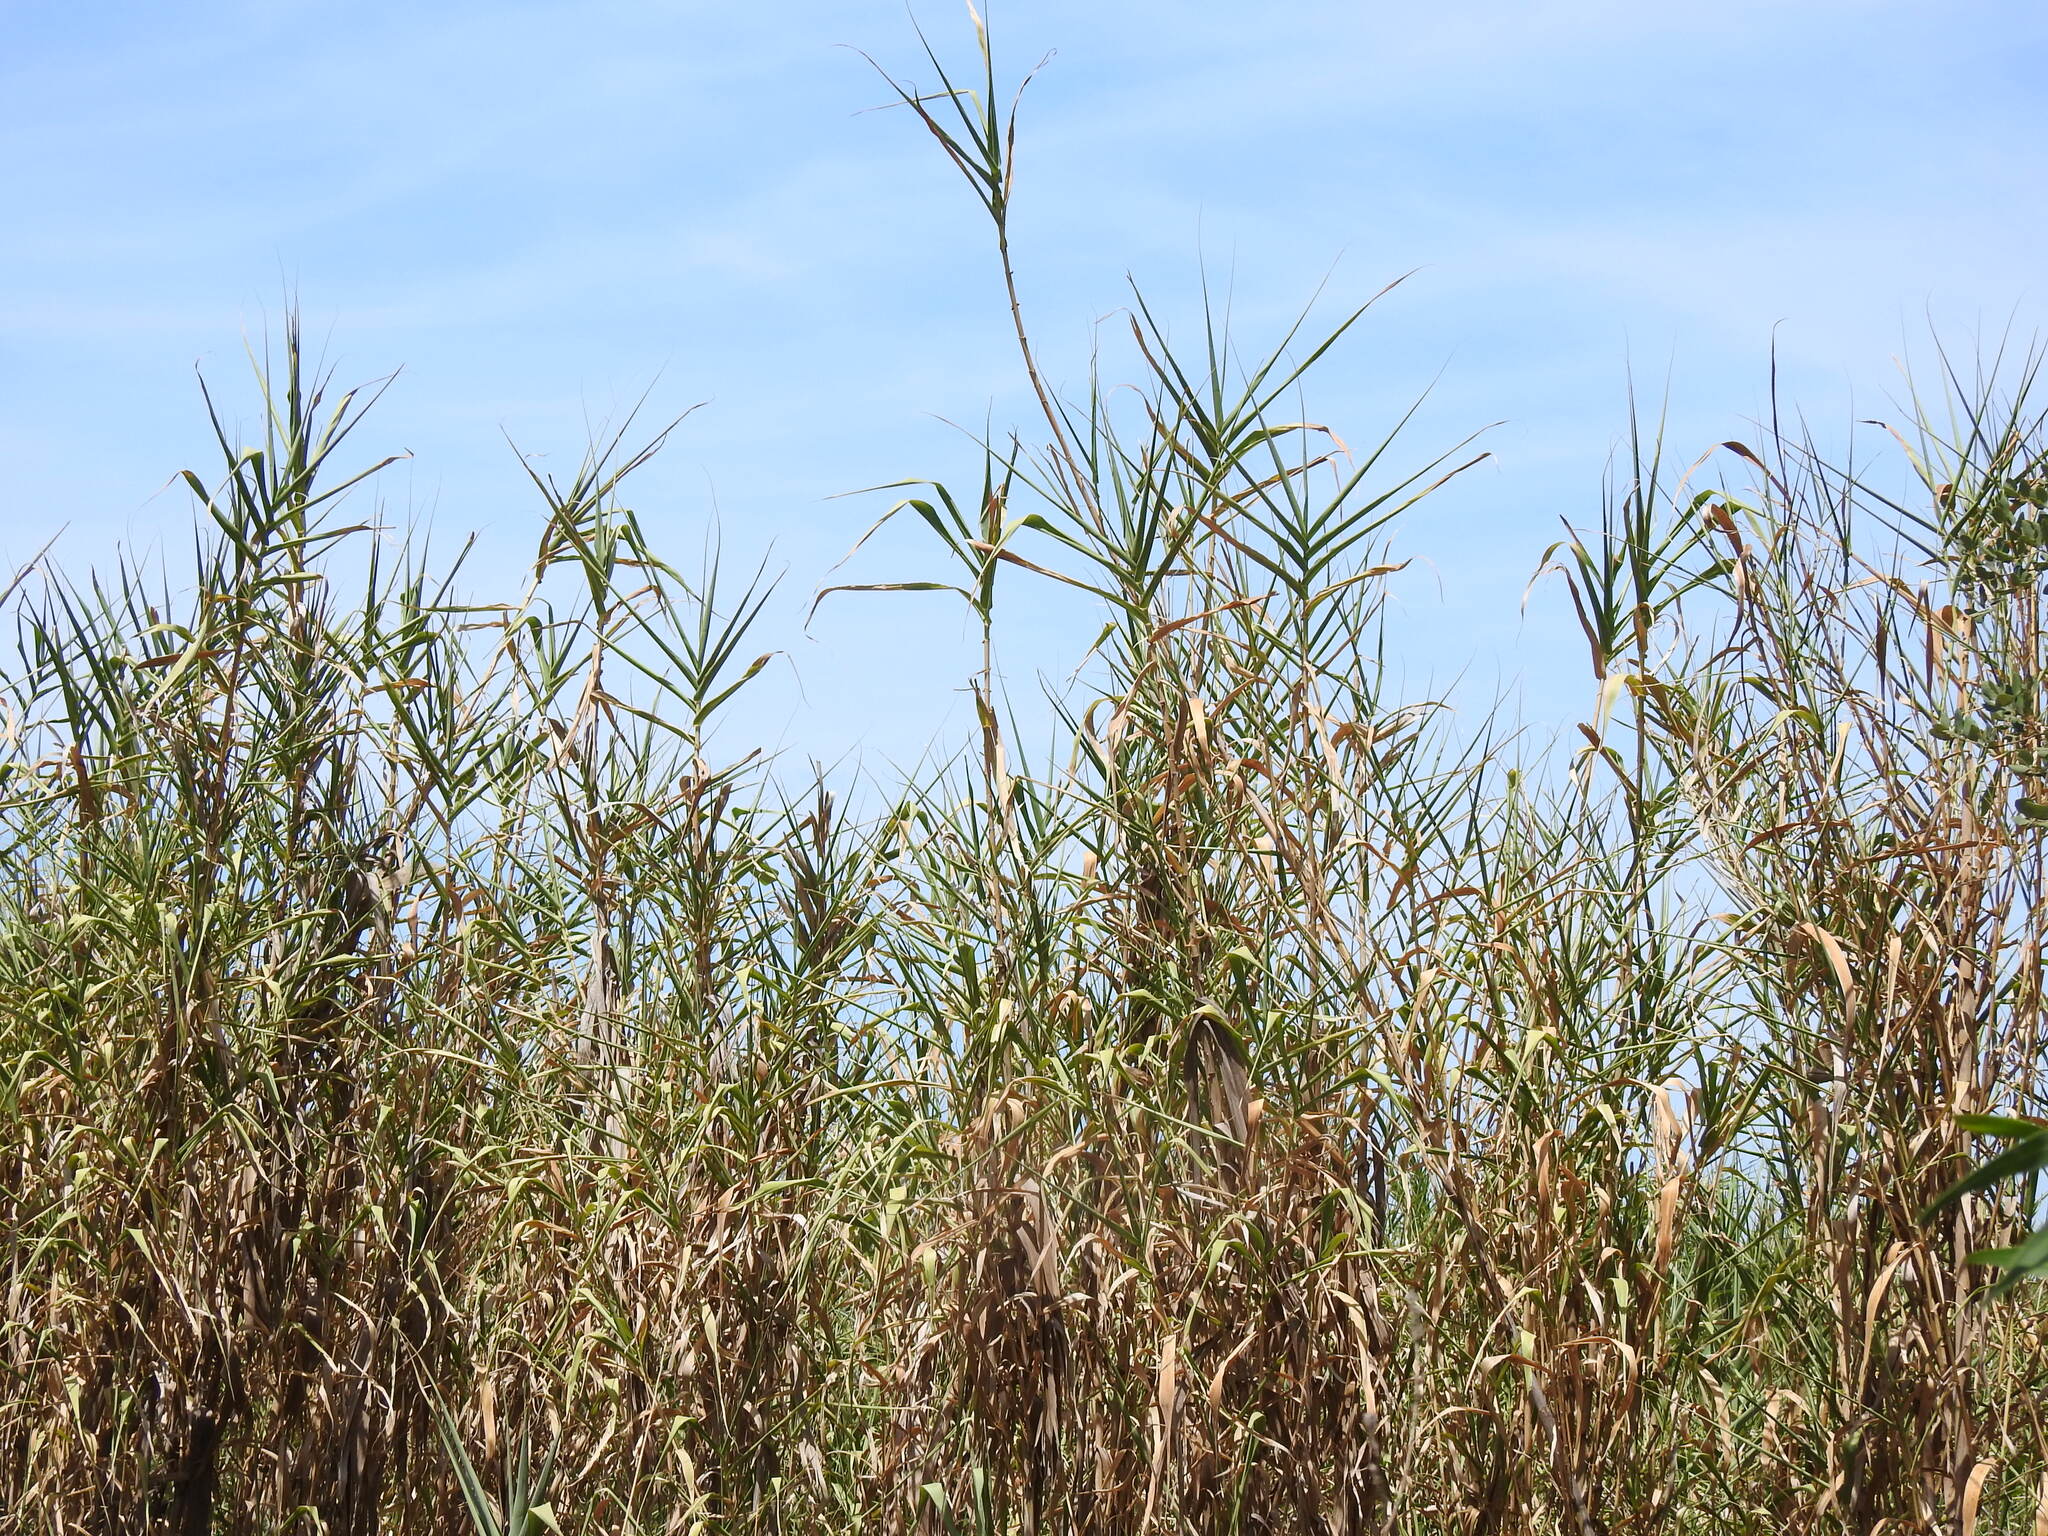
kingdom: Plantae
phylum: Tracheophyta
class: Liliopsida
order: Poales
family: Poaceae
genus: Arundo
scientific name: Arundo donax
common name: Giant reed
